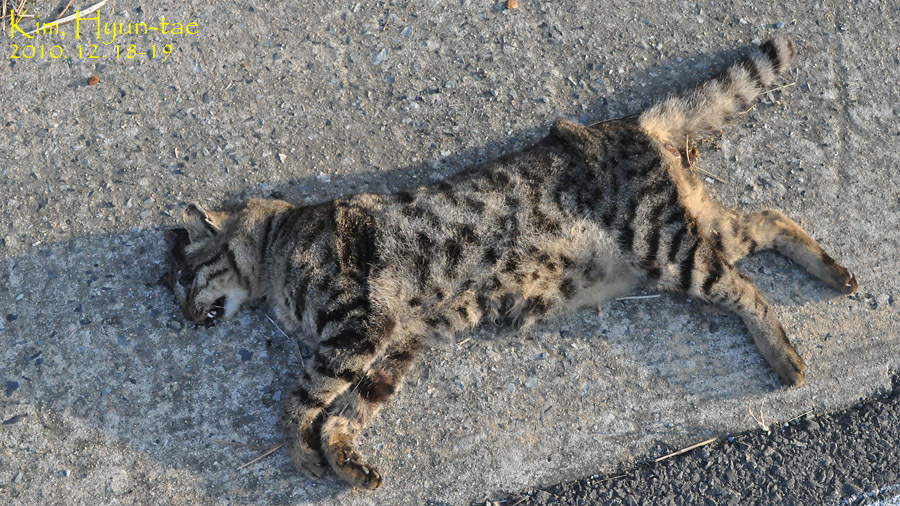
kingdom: Animalia
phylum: Chordata
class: Mammalia
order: Carnivora
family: Felidae
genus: Prionailurus
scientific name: Prionailurus bengalensis
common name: Leopard cat
